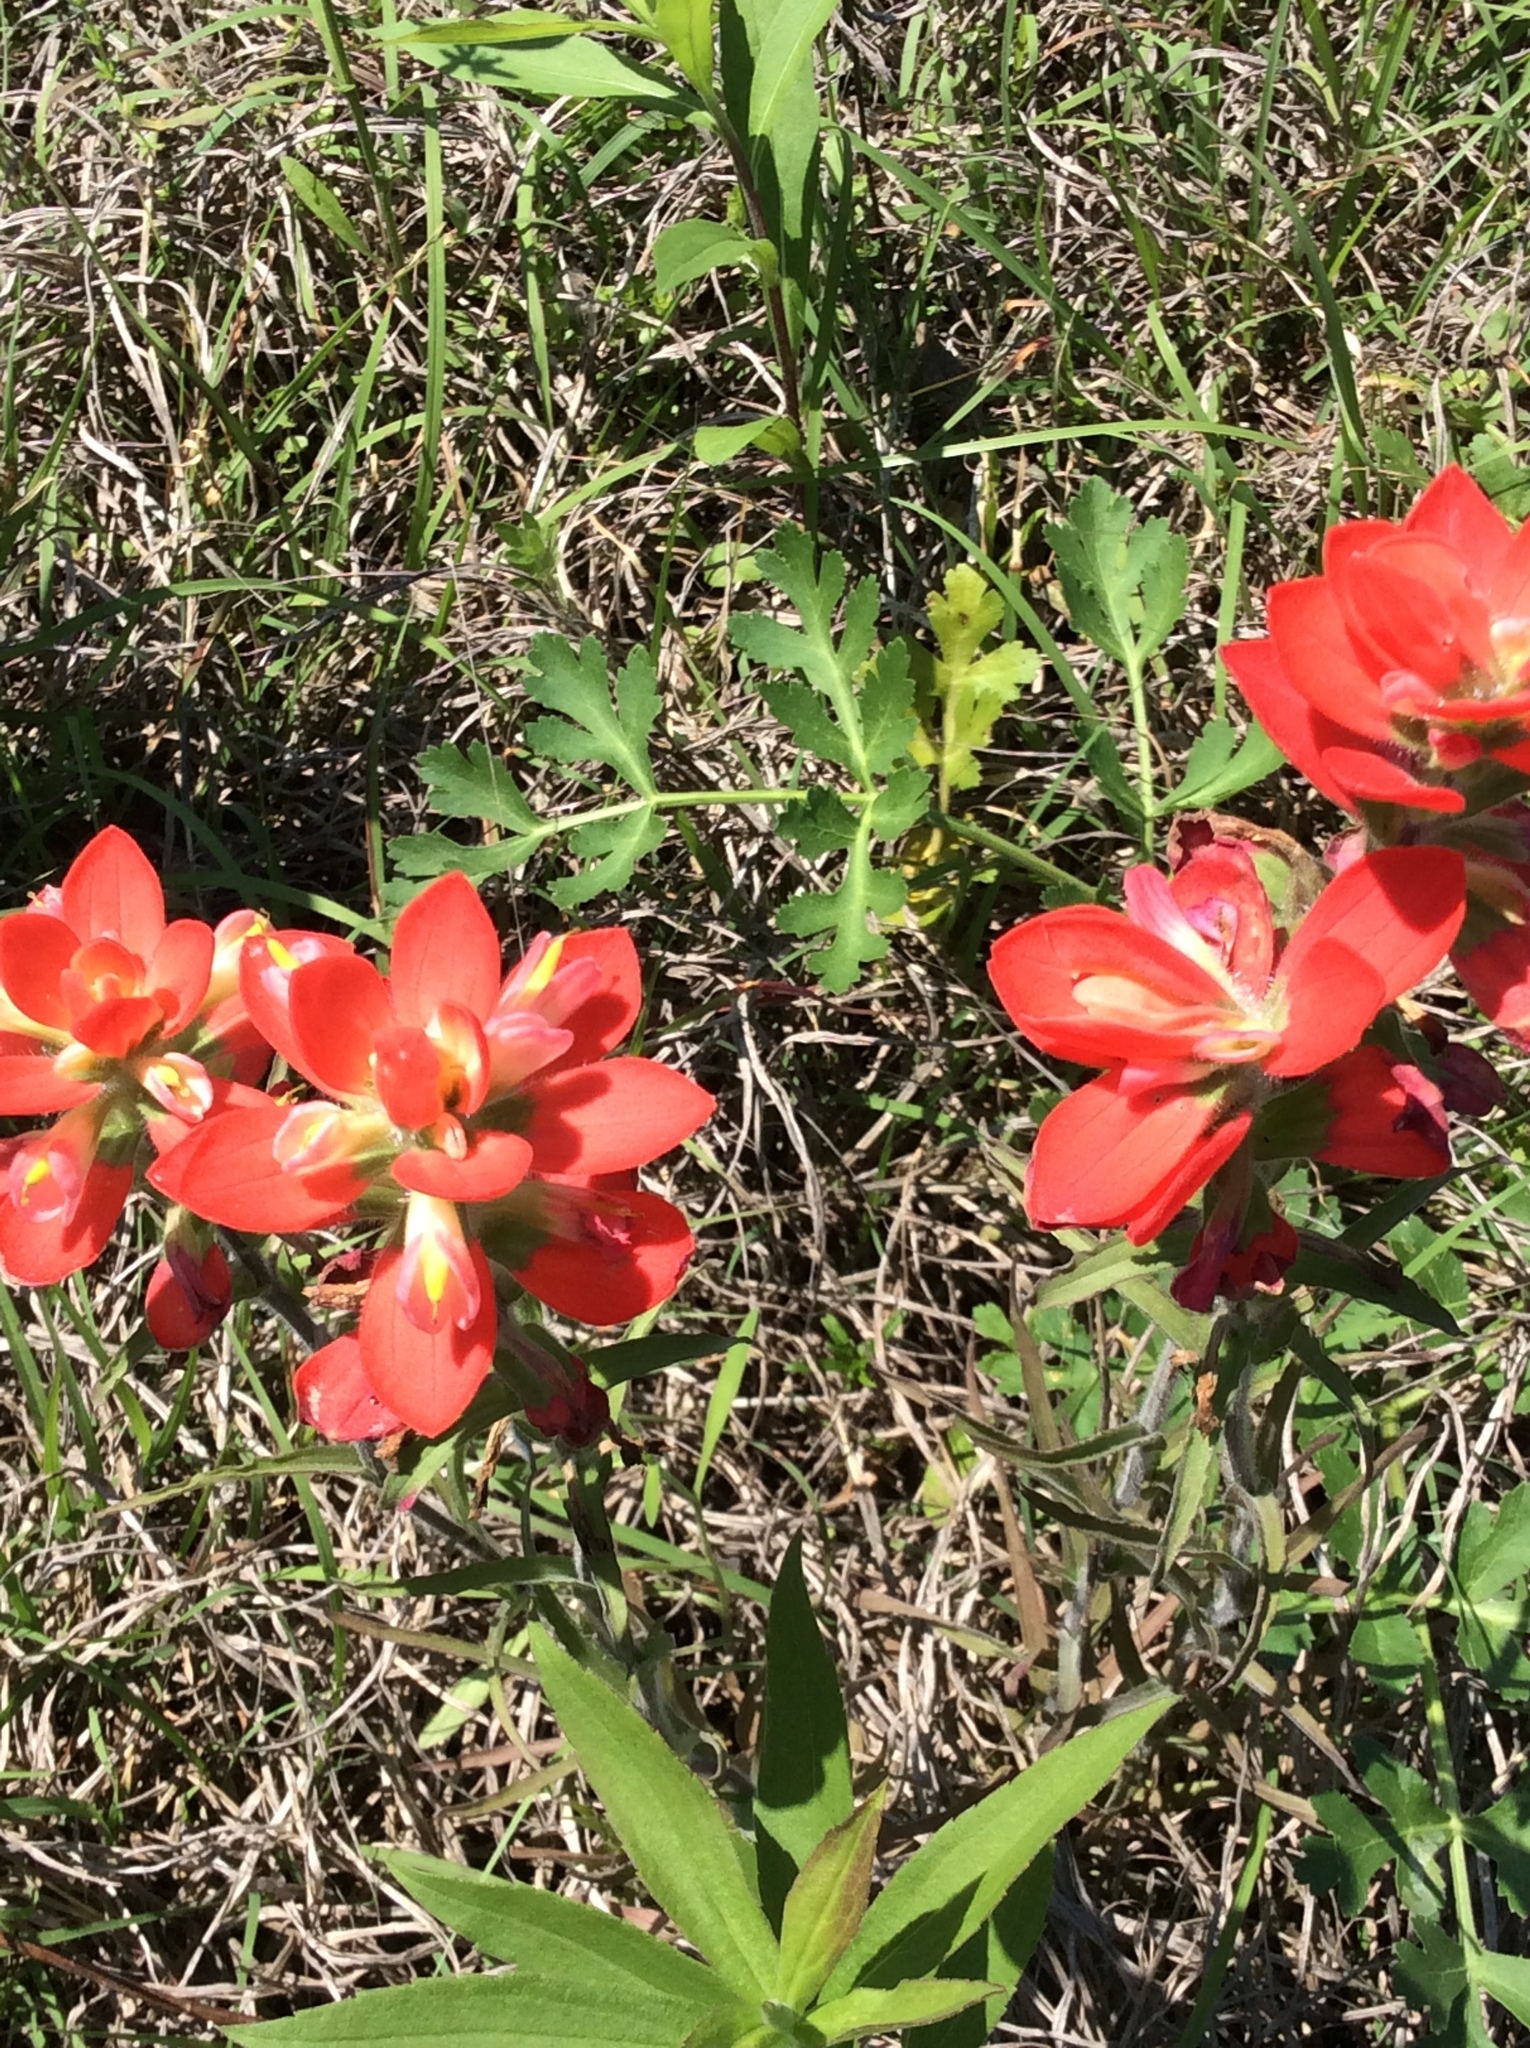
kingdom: Plantae
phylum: Tracheophyta
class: Magnoliopsida
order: Lamiales
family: Orobanchaceae
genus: Castilleja
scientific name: Castilleja indivisa
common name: Texas paintbrush
